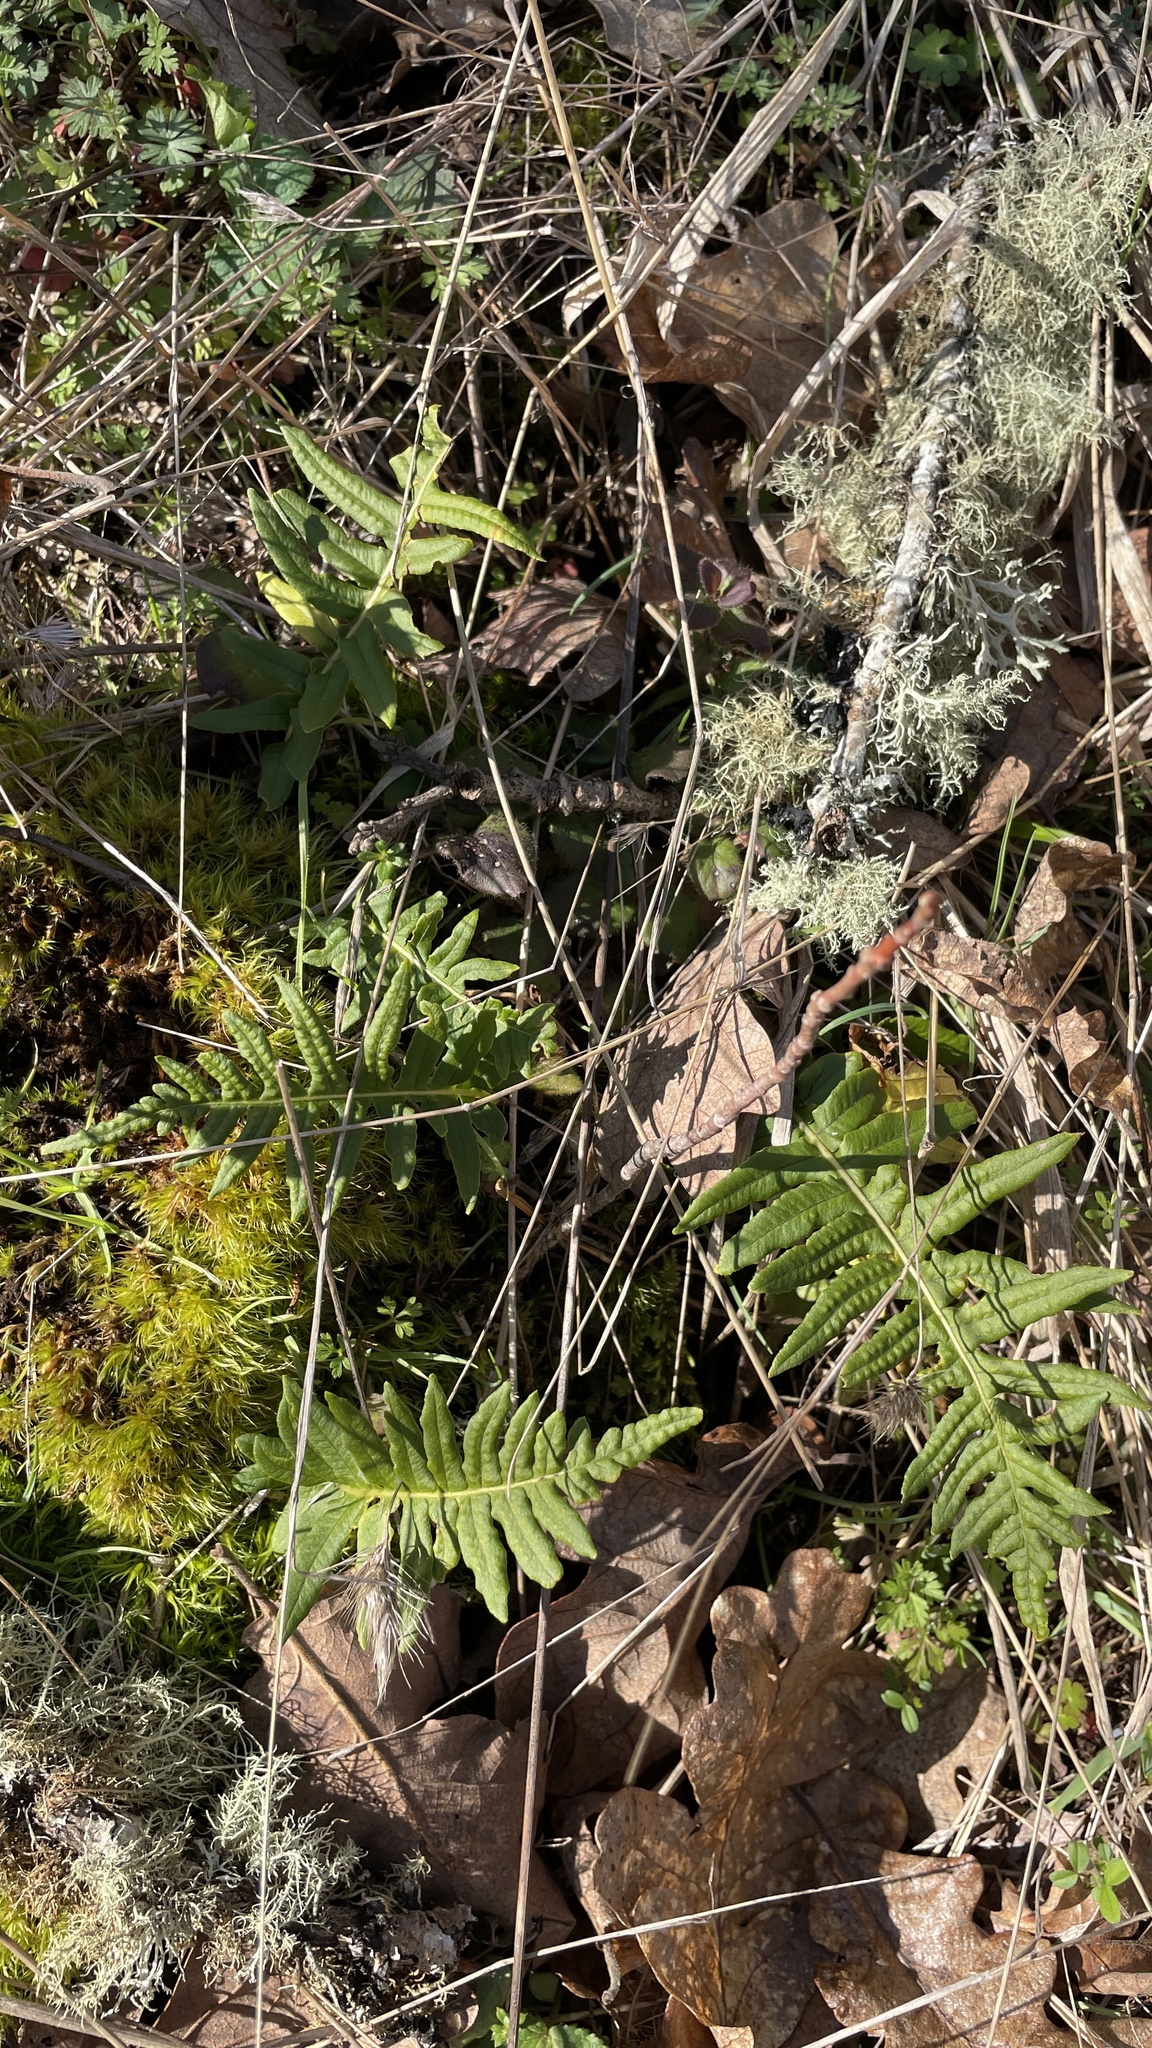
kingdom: Plantae
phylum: Tracheophyta
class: Polypodiopsida
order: Polypodiales
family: Polypodiaceae
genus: Polypodium
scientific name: Polypodium glycyrrhiza
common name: Licorice fern
